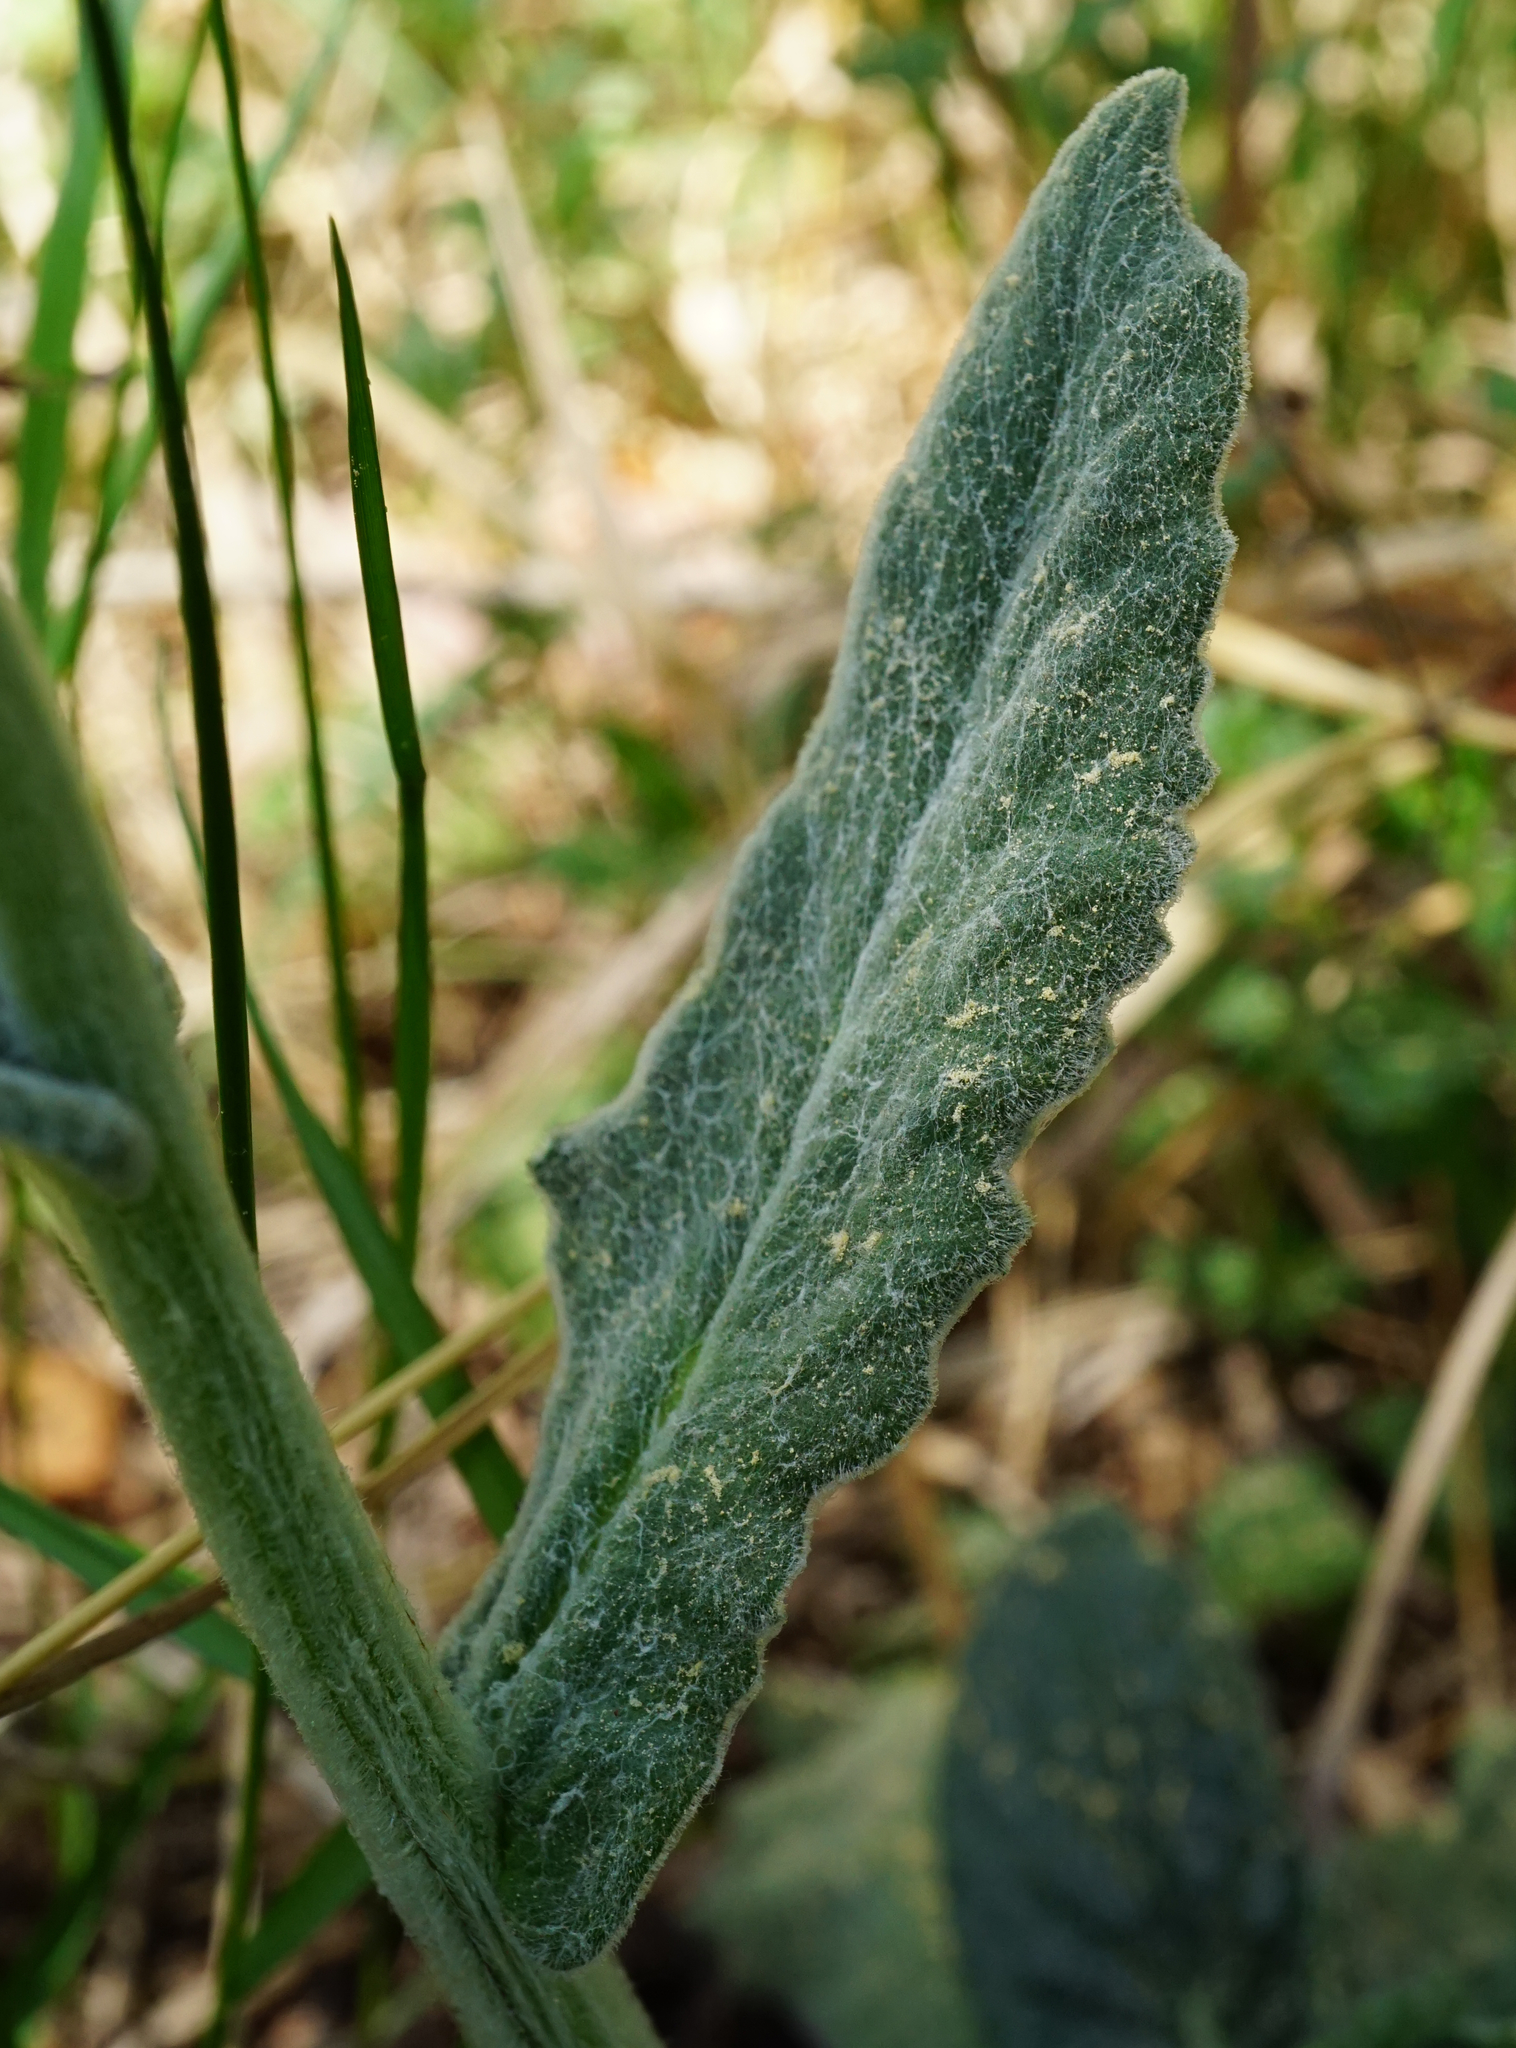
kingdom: Plantae
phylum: Tracheophyta
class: Magnoliopsida
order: Asterales
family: Asteraceae
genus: Tephroseris
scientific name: Tephroseris longifolia
